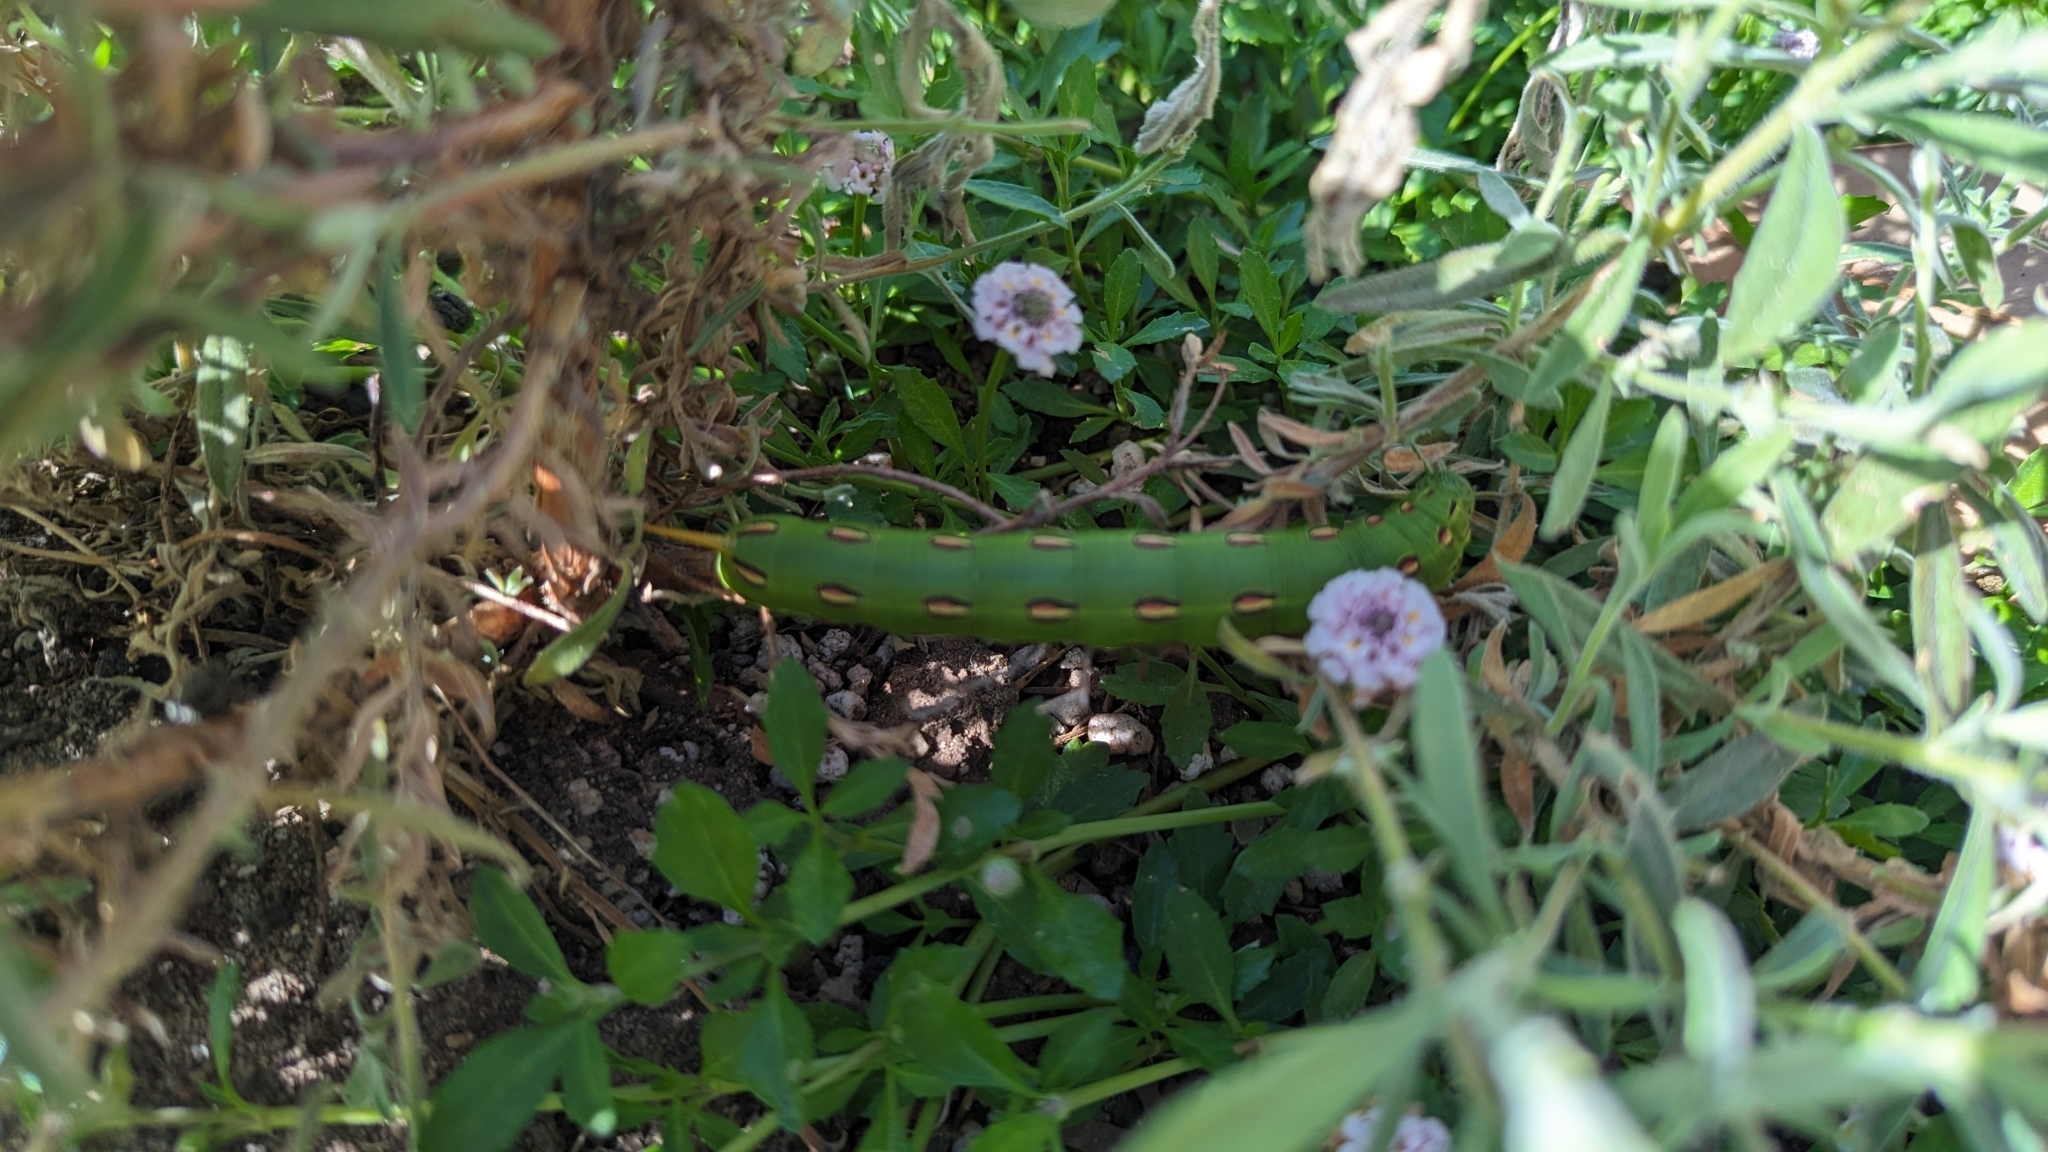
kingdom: Animalia
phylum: Arthropoda
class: Insecta
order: Lepidoptera
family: Sphingidae
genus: Hyles
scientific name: Hyles lineata
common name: White-lined sphinx
